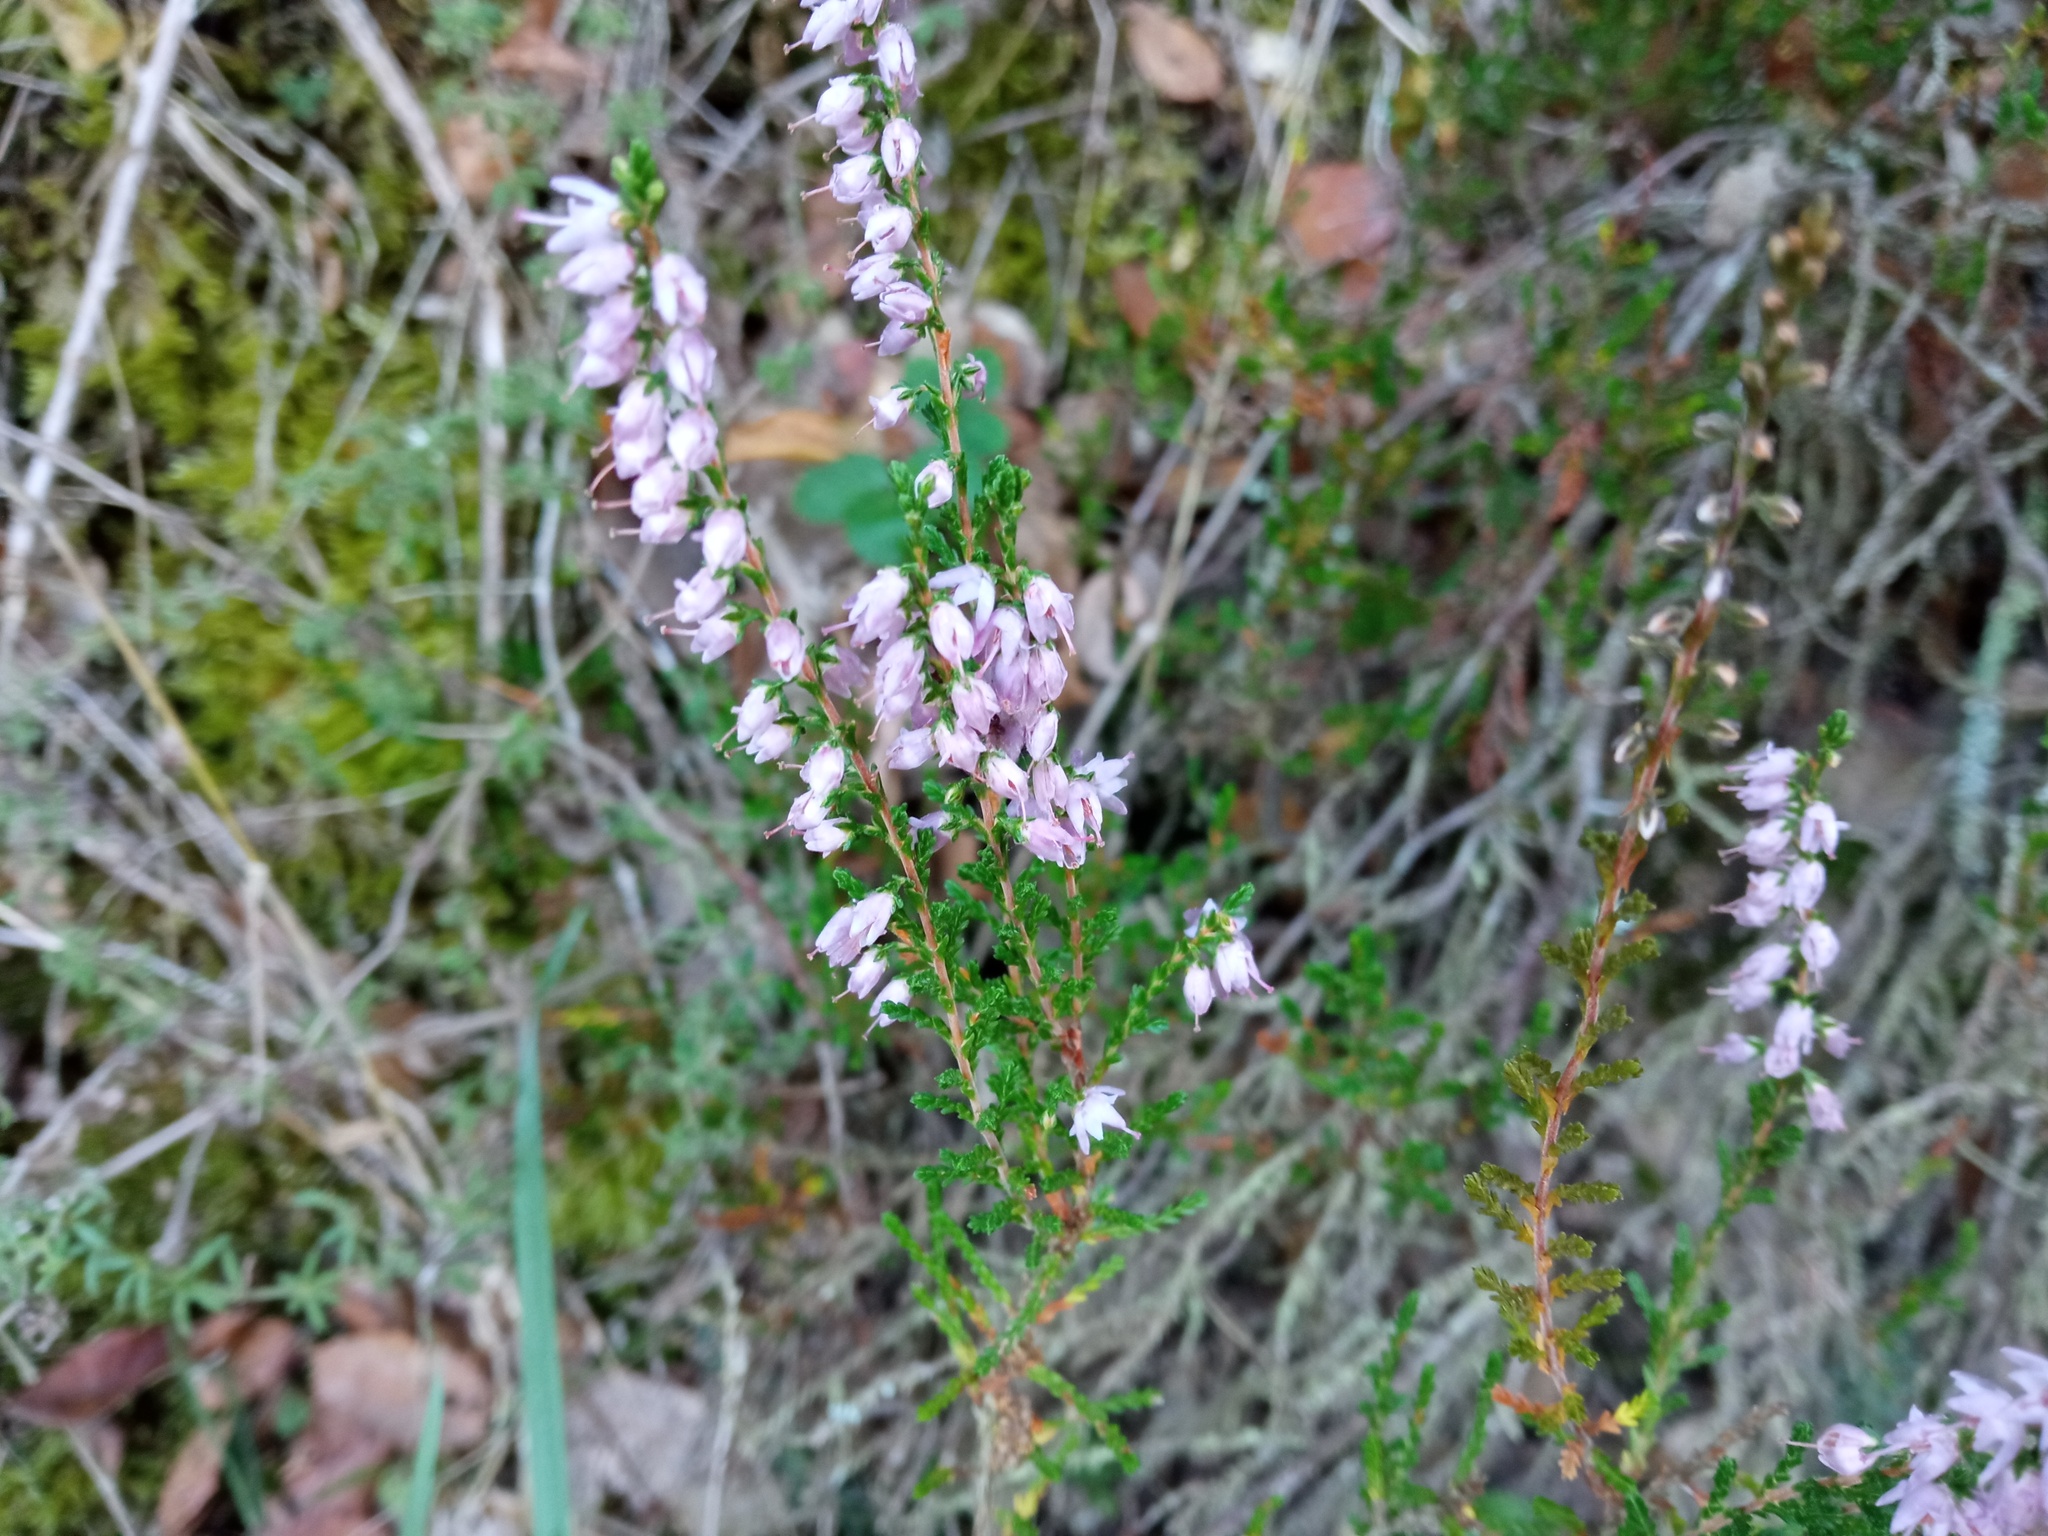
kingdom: Plantae
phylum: Tracheophyta
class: Magnoliopsida
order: Ericales
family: Ericaceae
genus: Calluna
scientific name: Calluna vulgaris
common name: Heather
